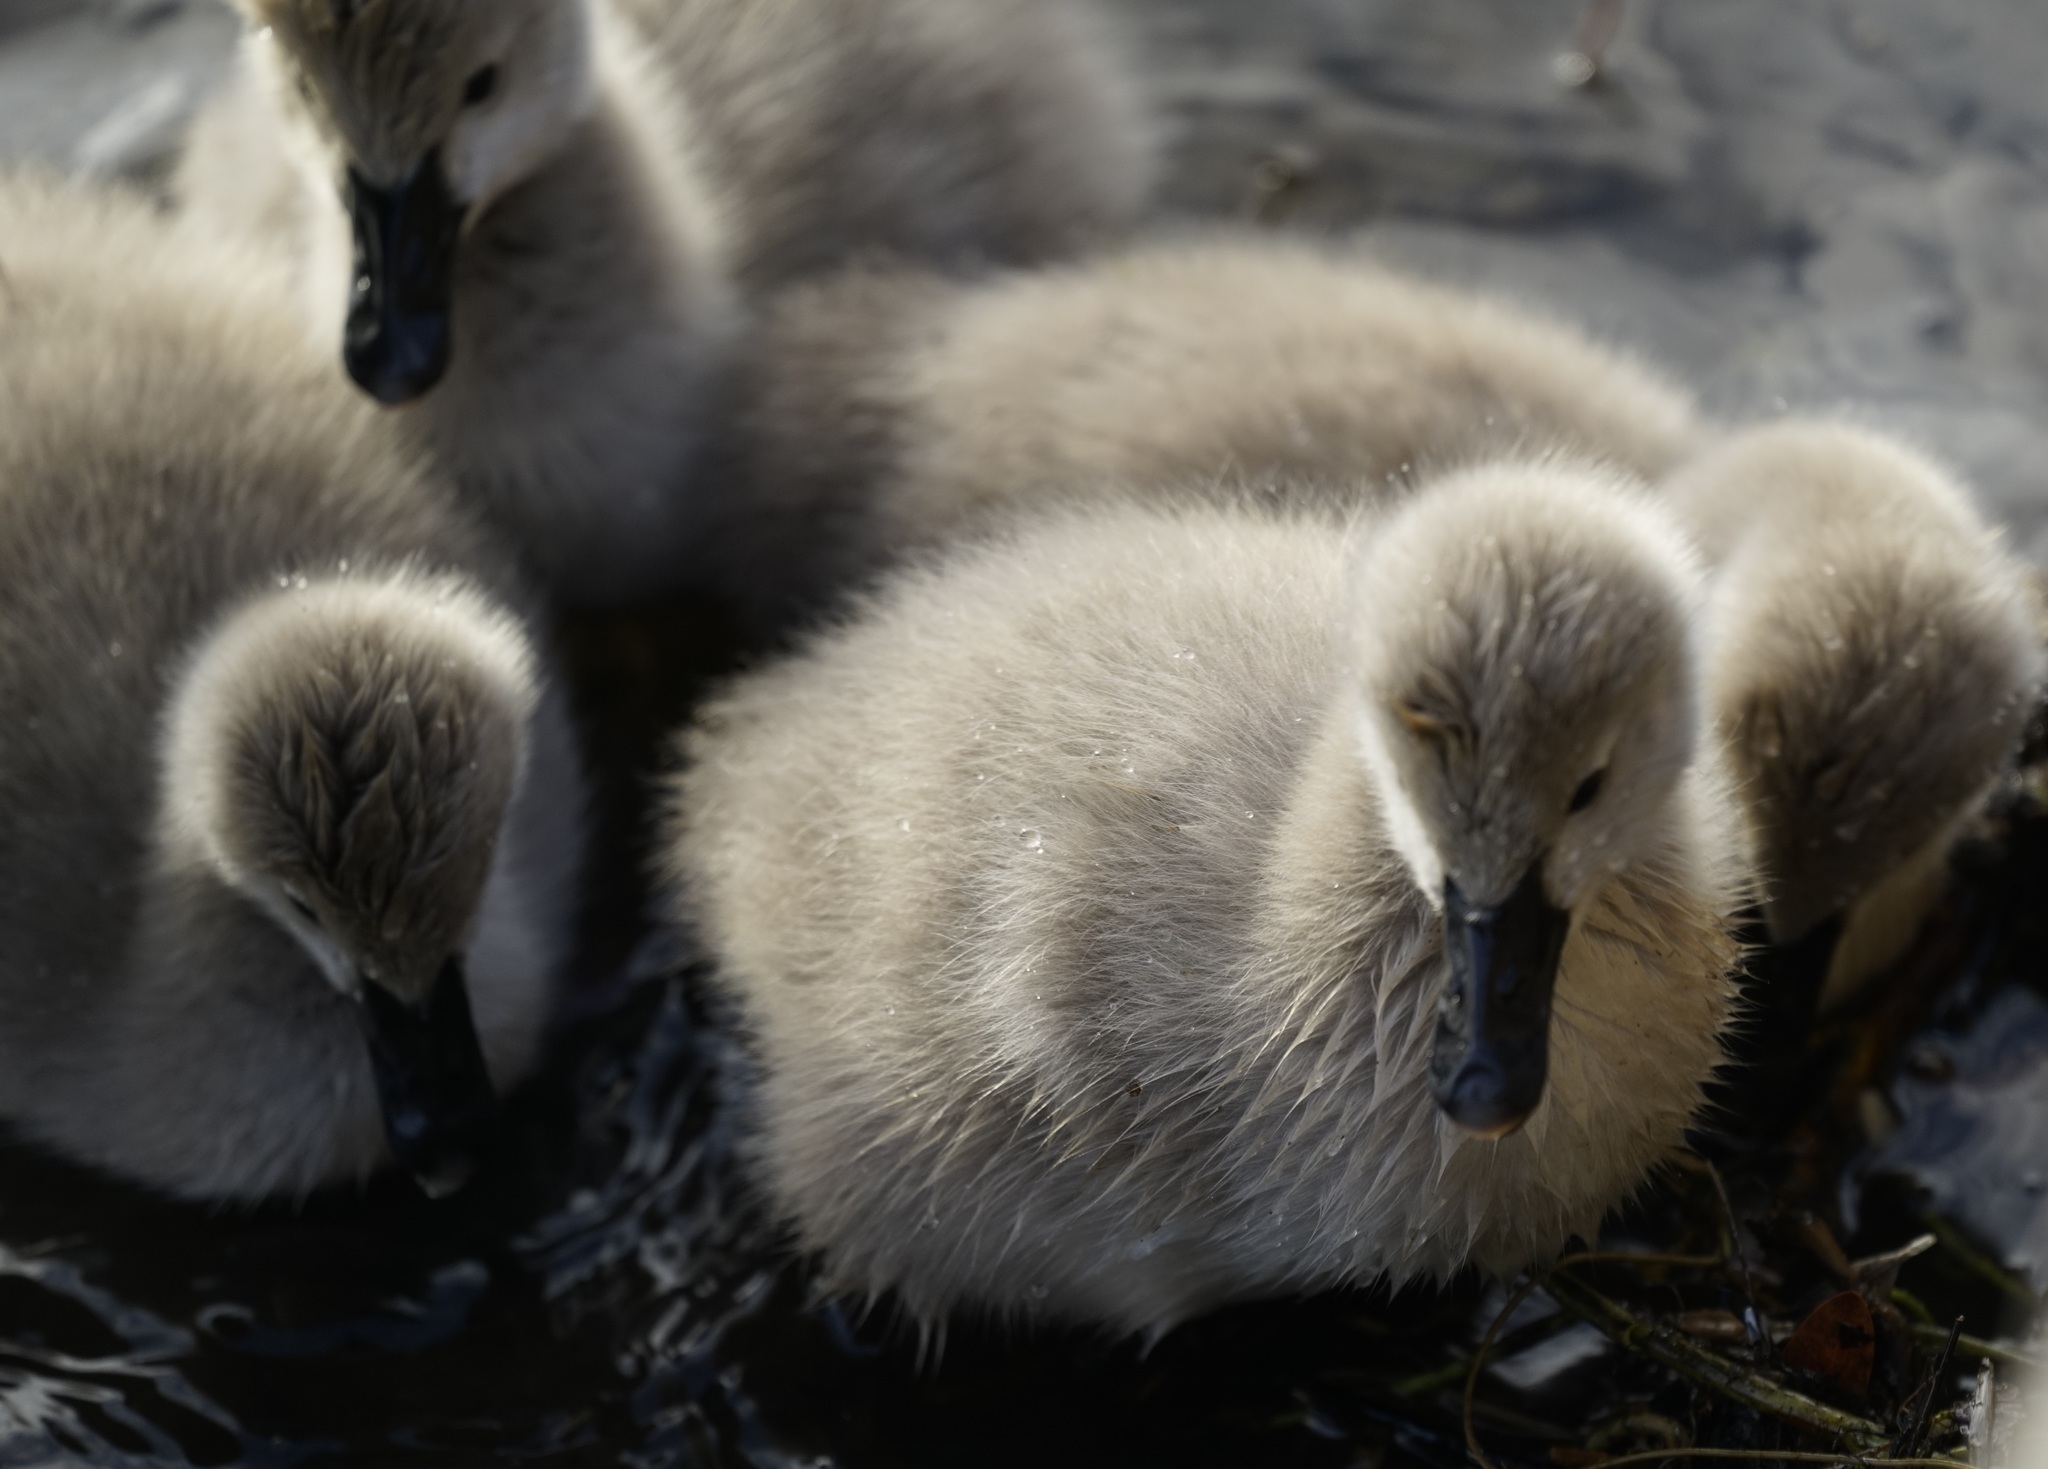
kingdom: Animalia
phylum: Chordata
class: Aves
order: Anseriformes
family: Anatidae
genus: Cygnus
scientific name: Cygnus atratus
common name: Black swan
